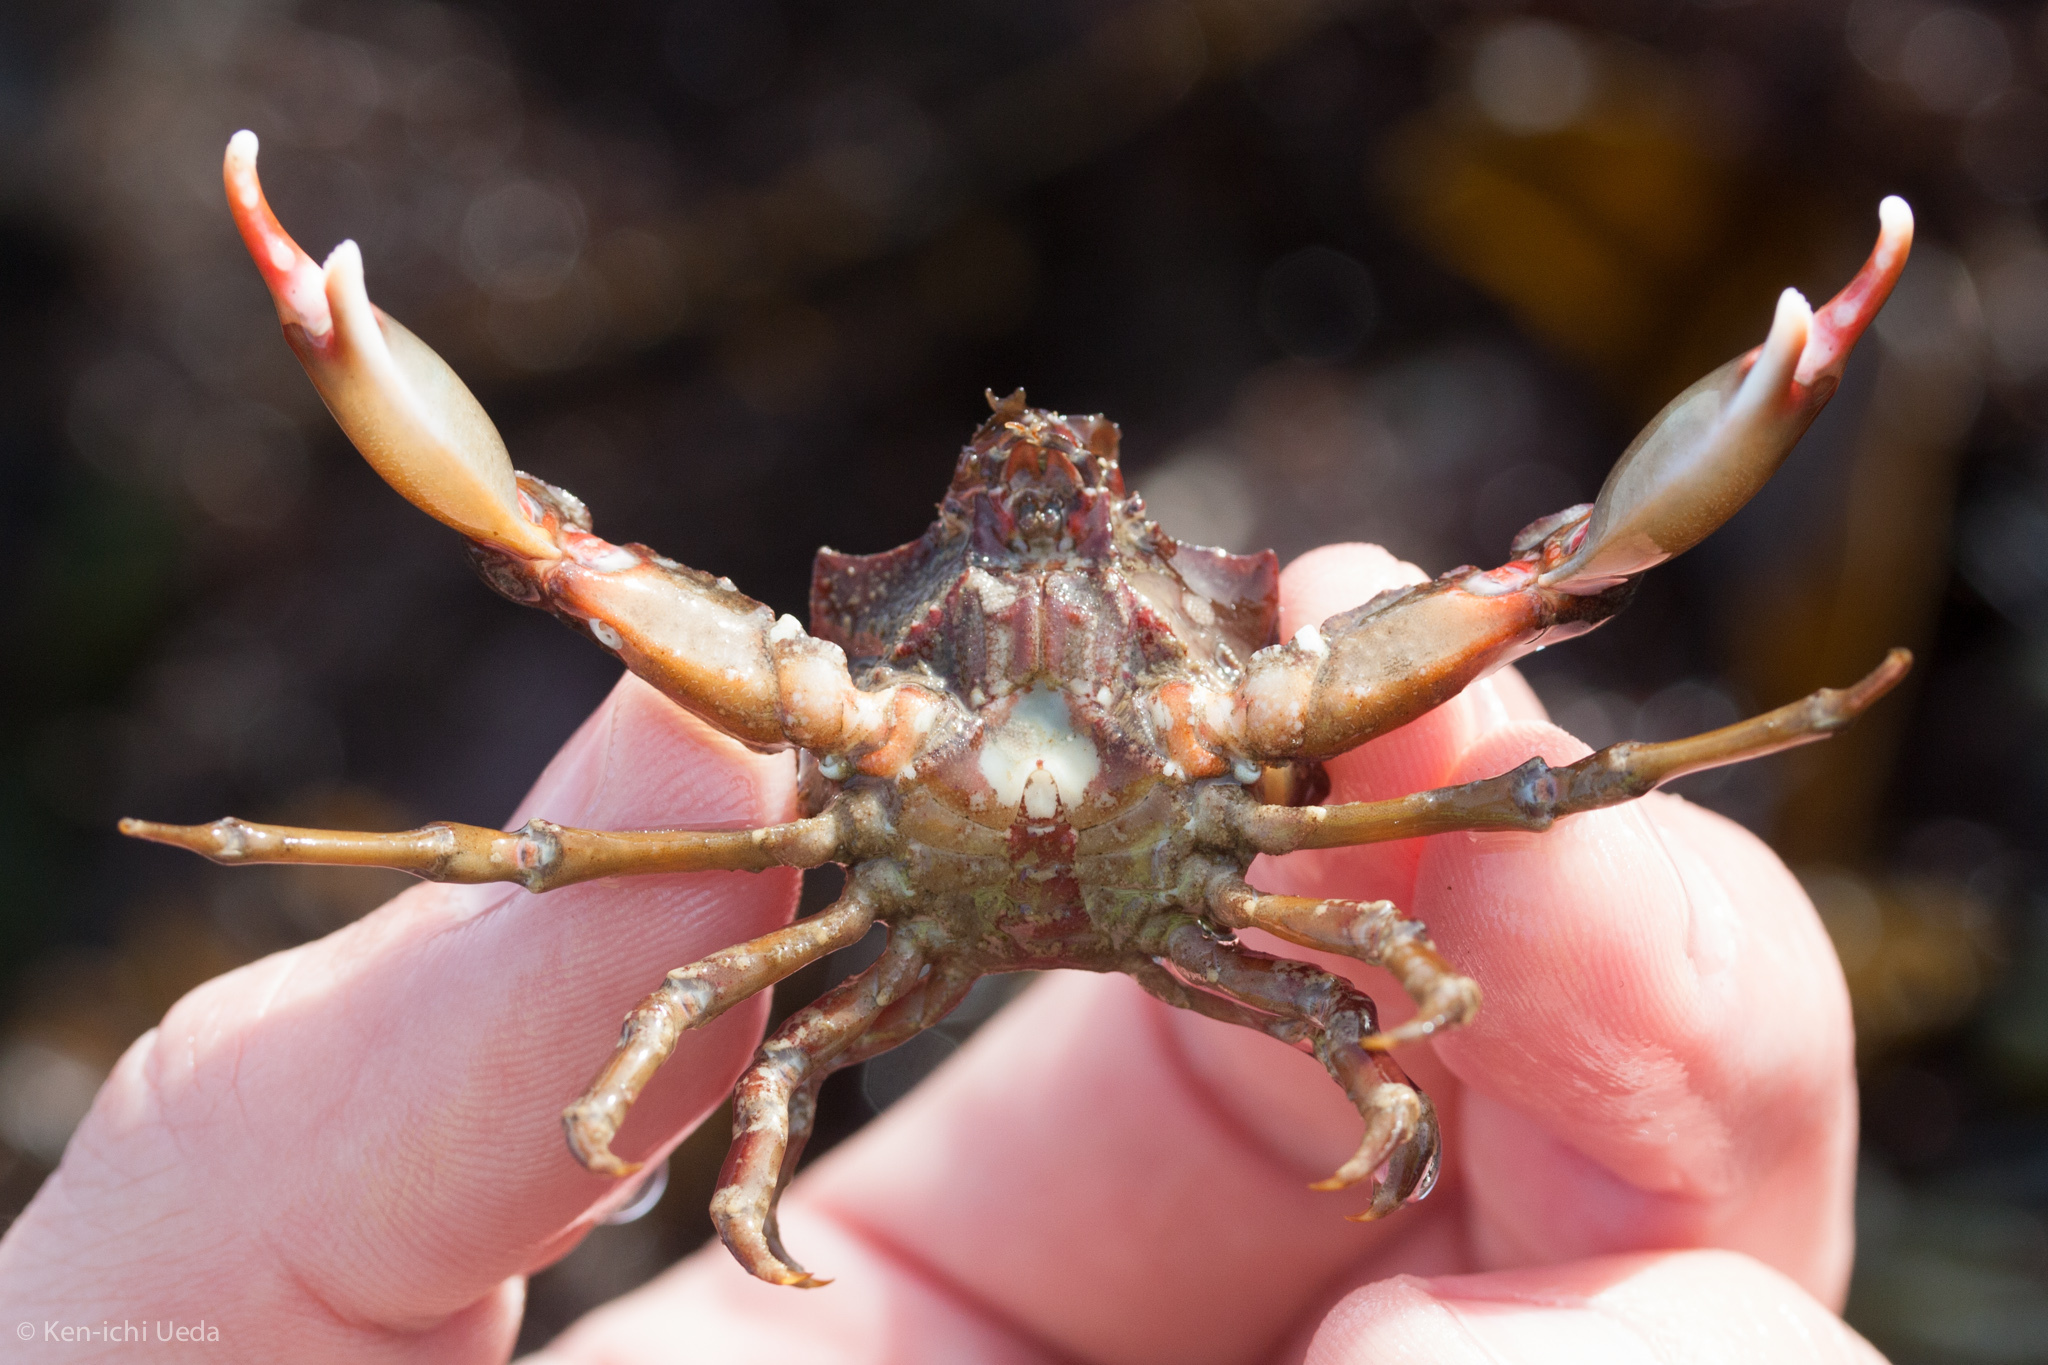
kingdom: Animalia
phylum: Arthropoda
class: Malacostraca
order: Decapoda
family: Epialtidae
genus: Pugettia
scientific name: Pugettia foliata
